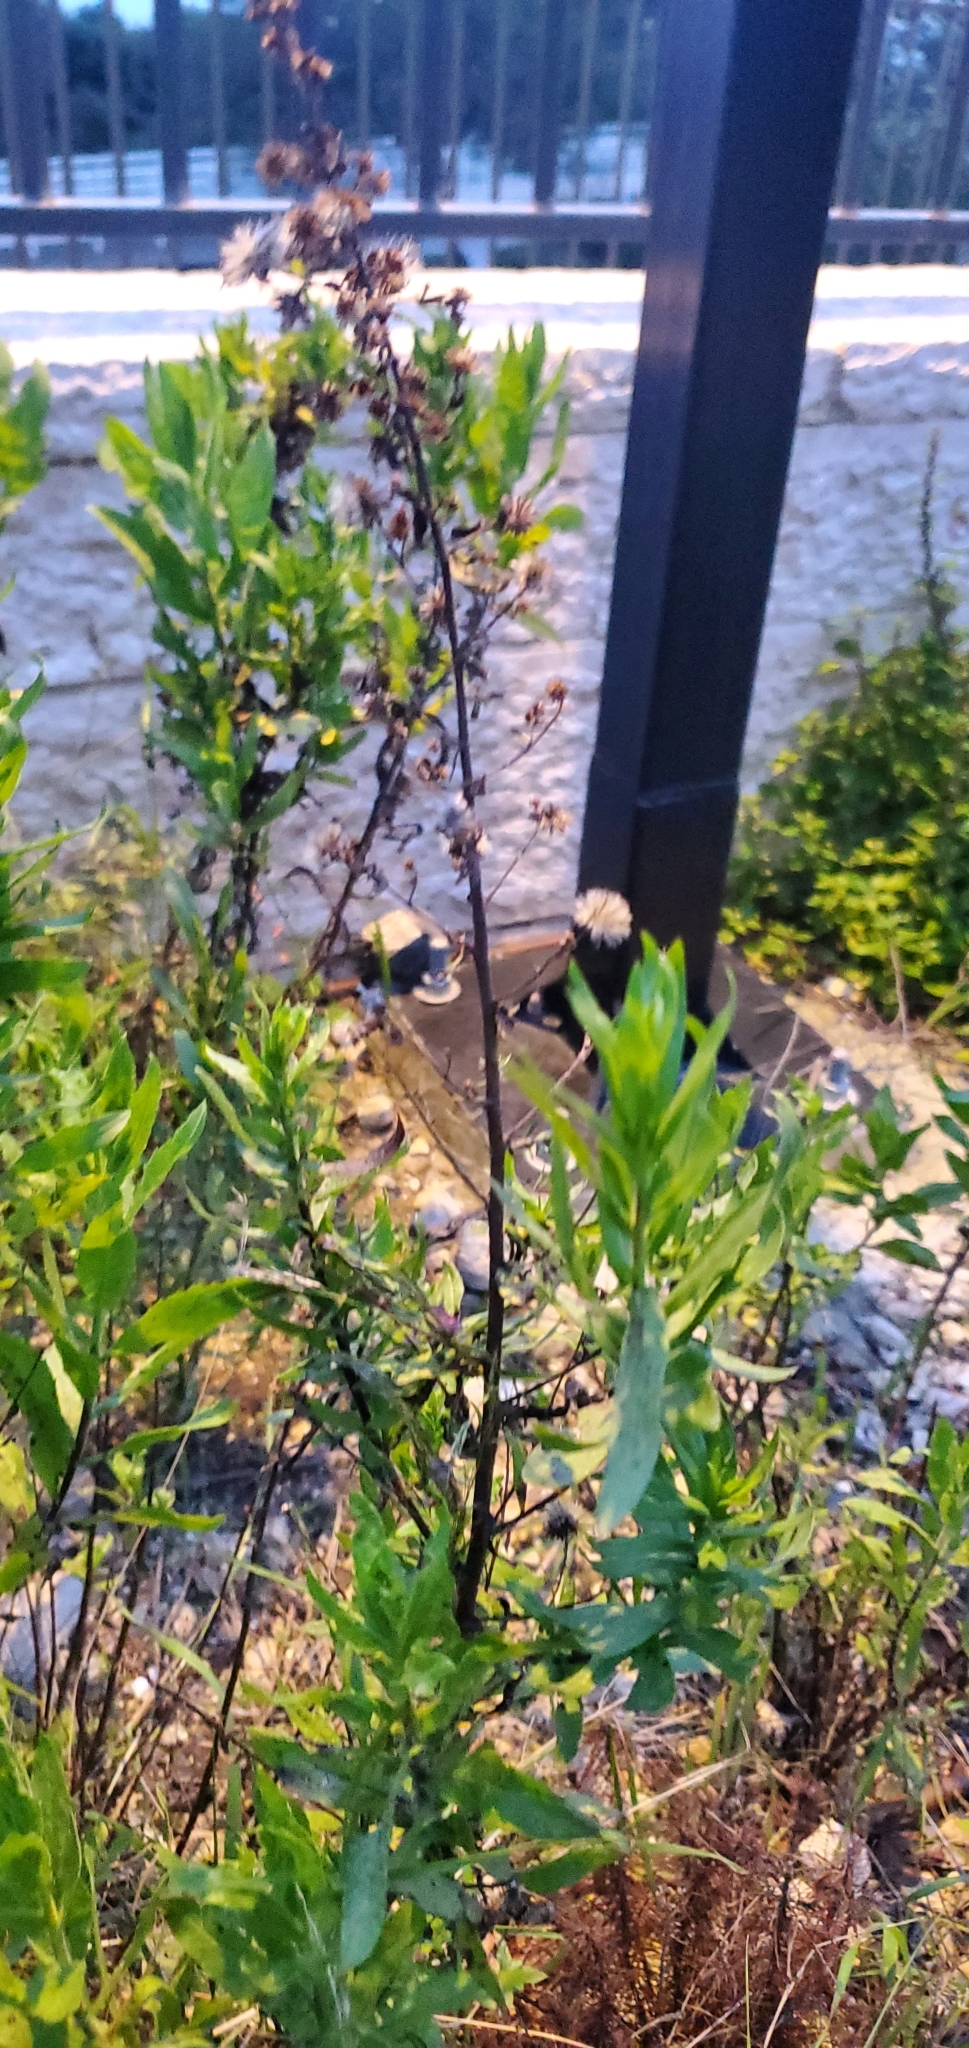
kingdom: Plantae
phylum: Tracheophyta
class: Magnoliopsida
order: Asterales
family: Asteraceae
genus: Dittrichia
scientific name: Dittrichia viscosa
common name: Woody fleabane
